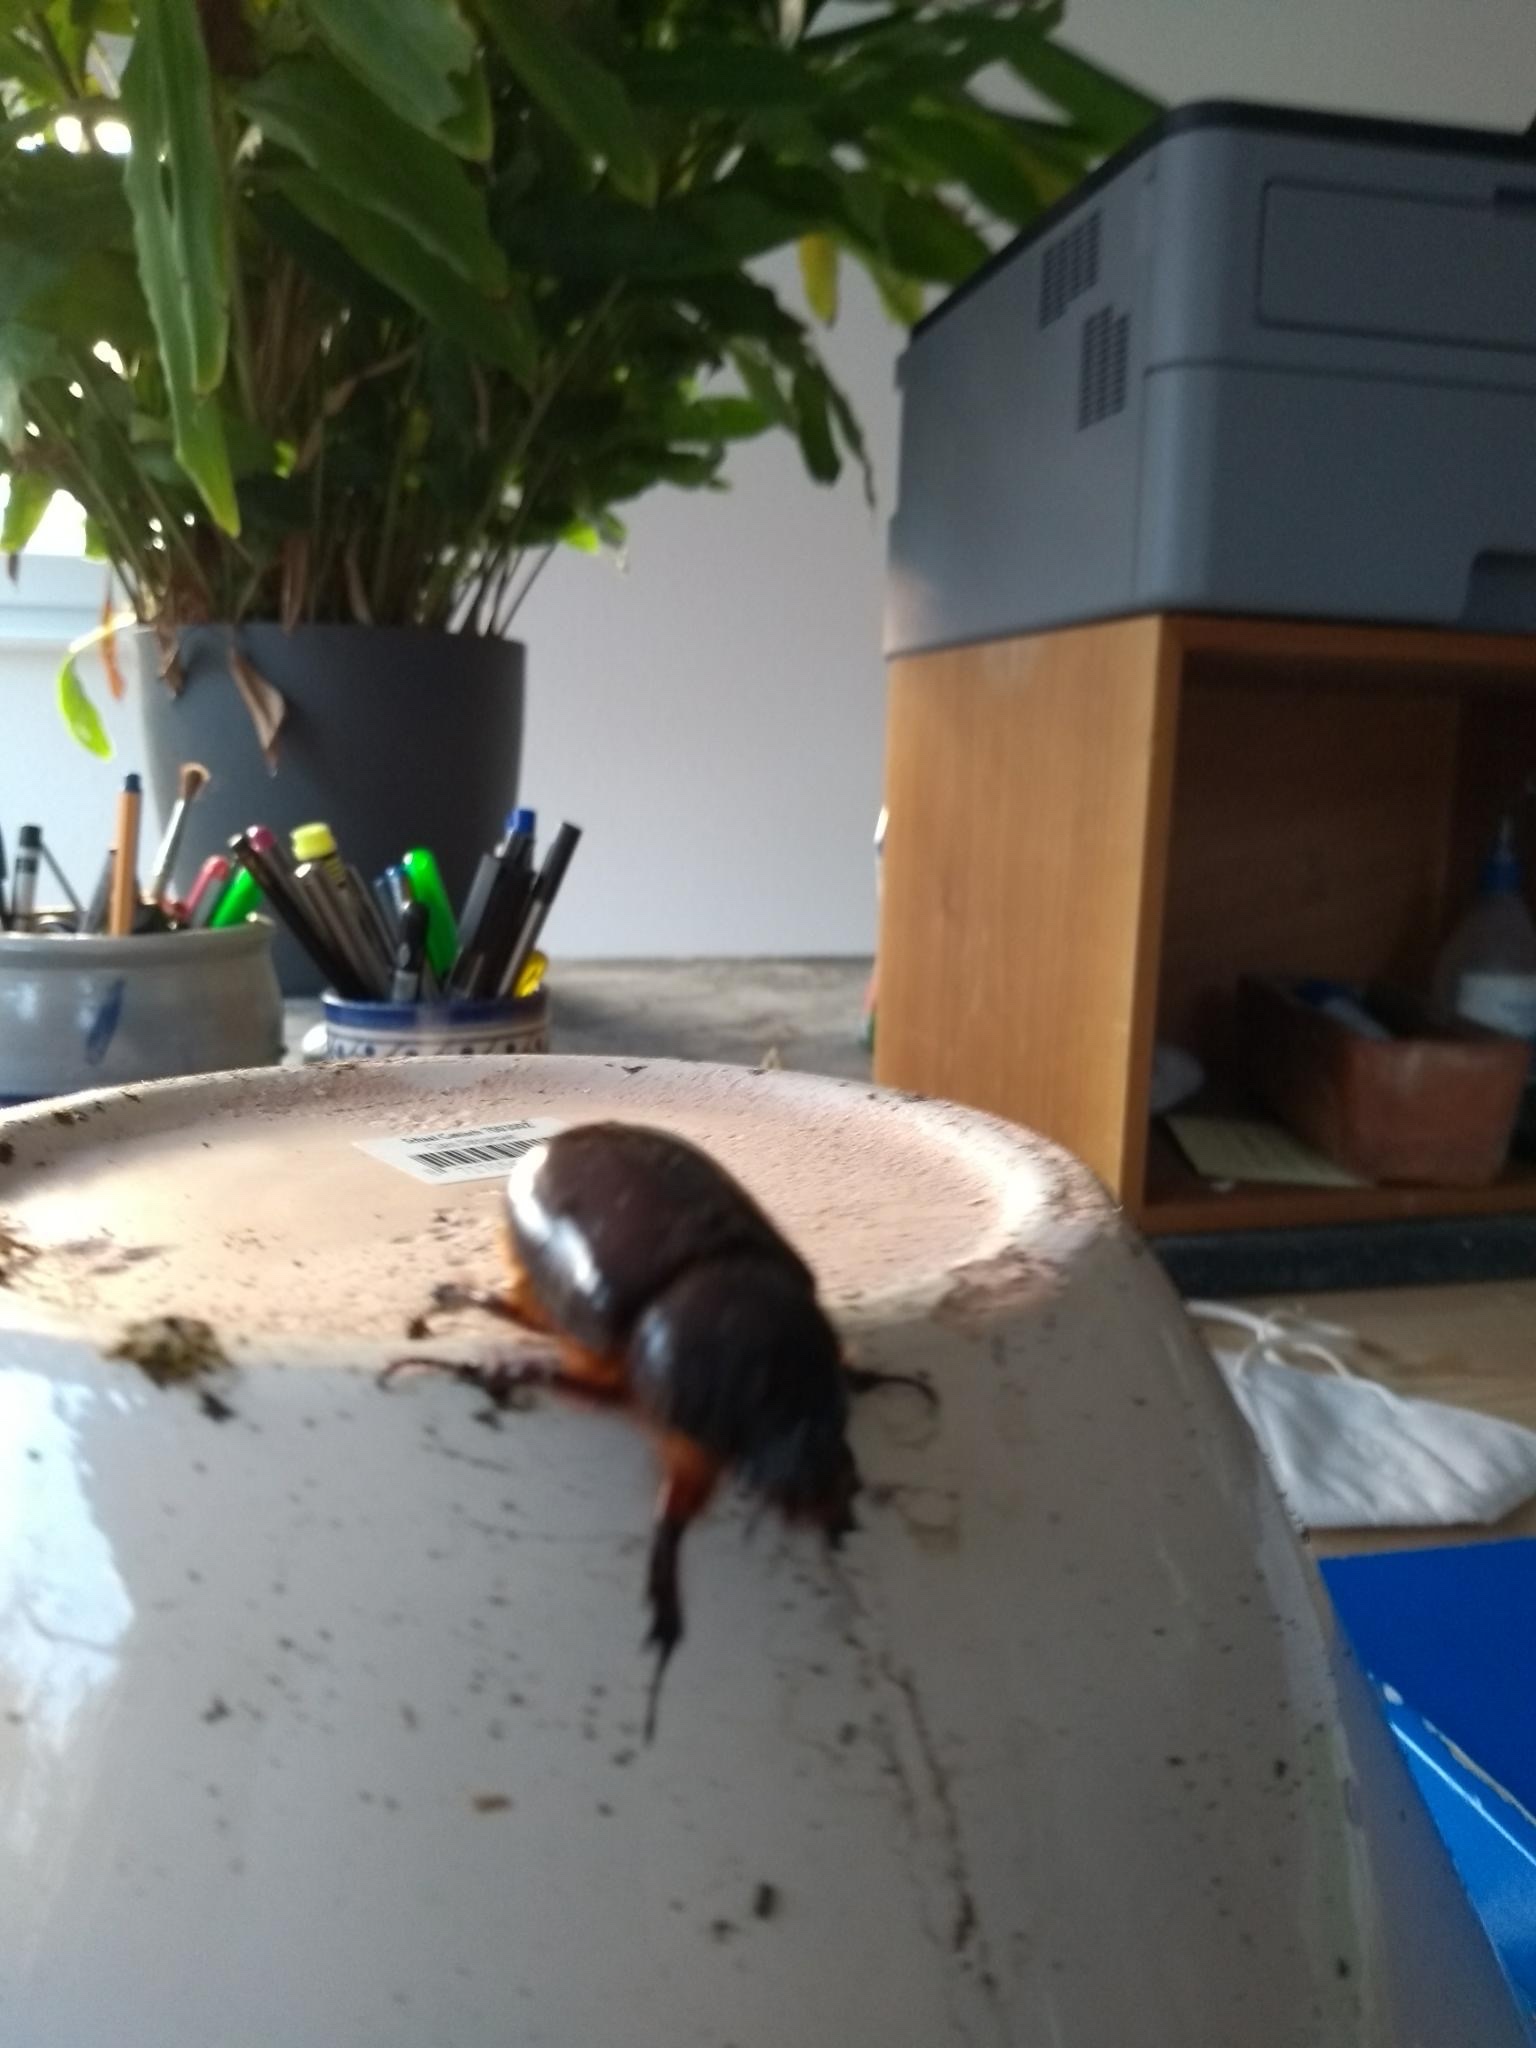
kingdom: Animalia
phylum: Arthropoda
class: Insecta
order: Coleoptera
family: Scarabaeidae
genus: Oryctes
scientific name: Oryctes nasicornis
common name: European rhinoceros beetle
